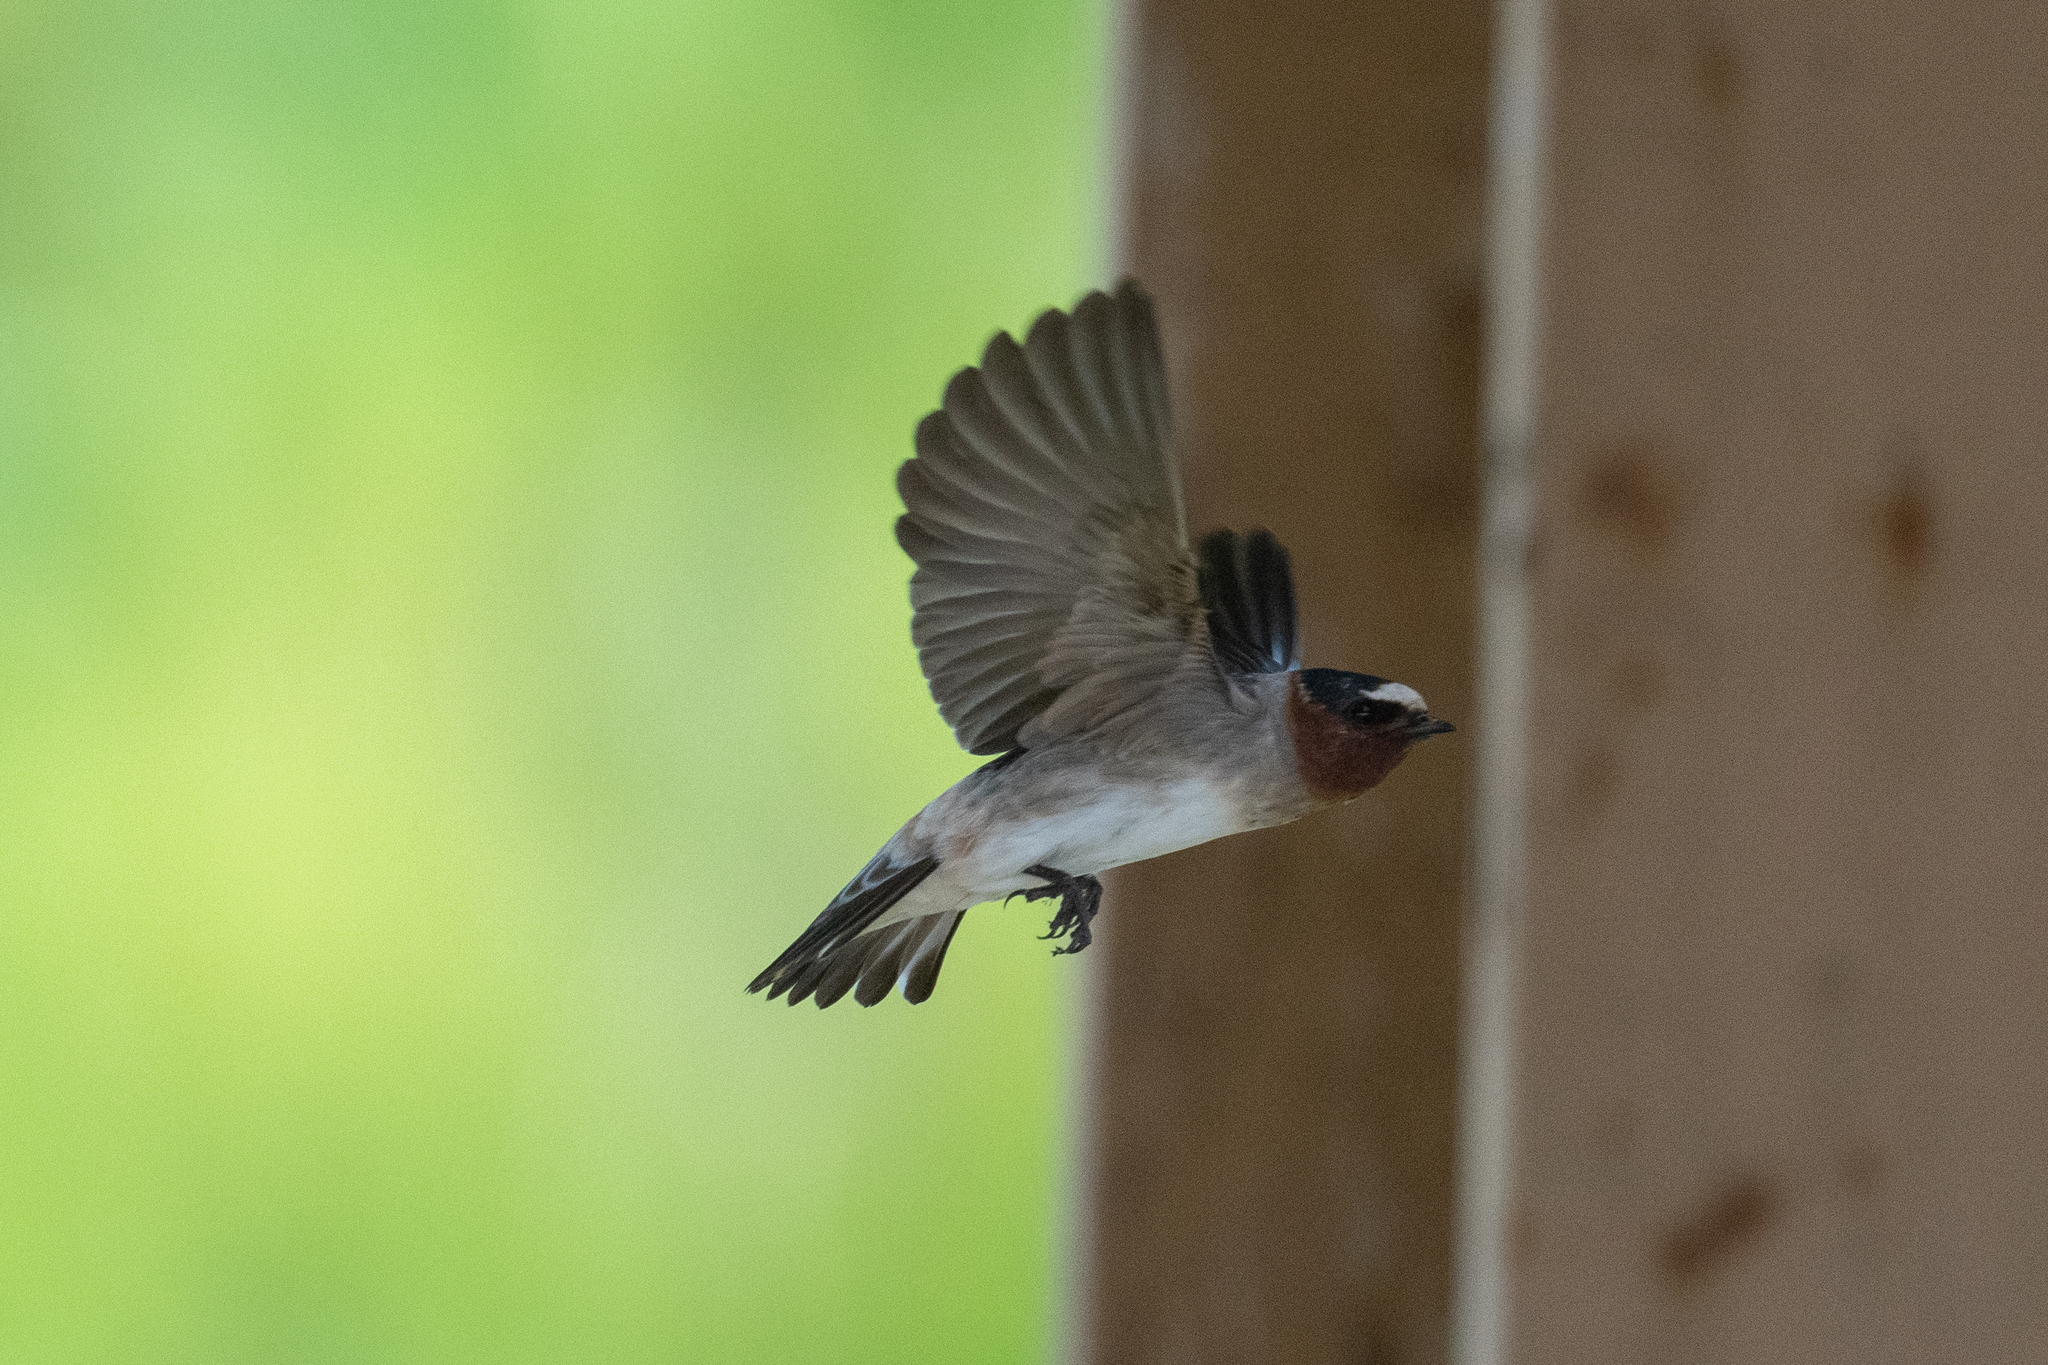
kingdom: Animalia
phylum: Chordata
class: Aves
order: Passeriformes
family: Hirundinidae
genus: Petrochelidon
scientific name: Petrochelidon pyrrhonota
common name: American cliff swallow
